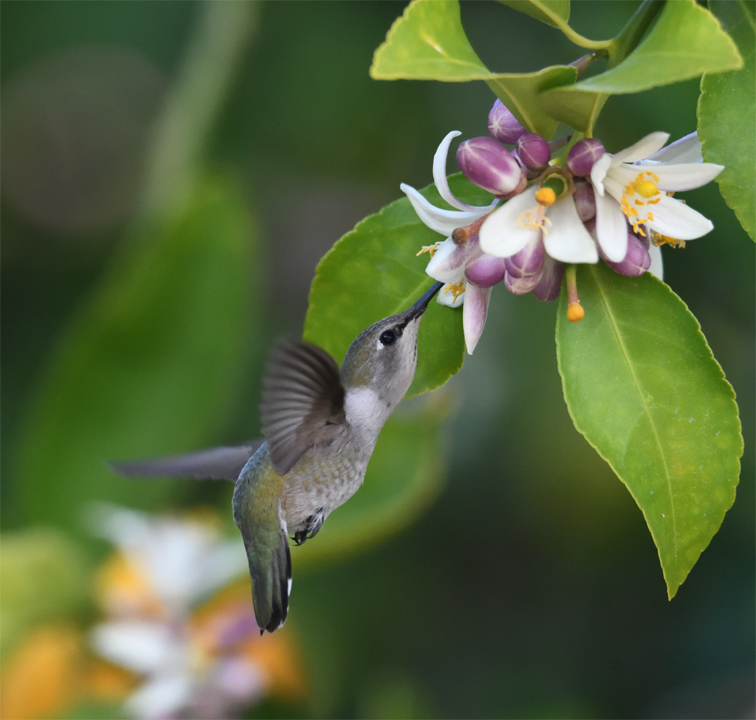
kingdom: Animalia
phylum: Chordata
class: Aves
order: Apodiformes
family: Trochilidae
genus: Calypte
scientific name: Calypte costae
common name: Costa's hummingbird
